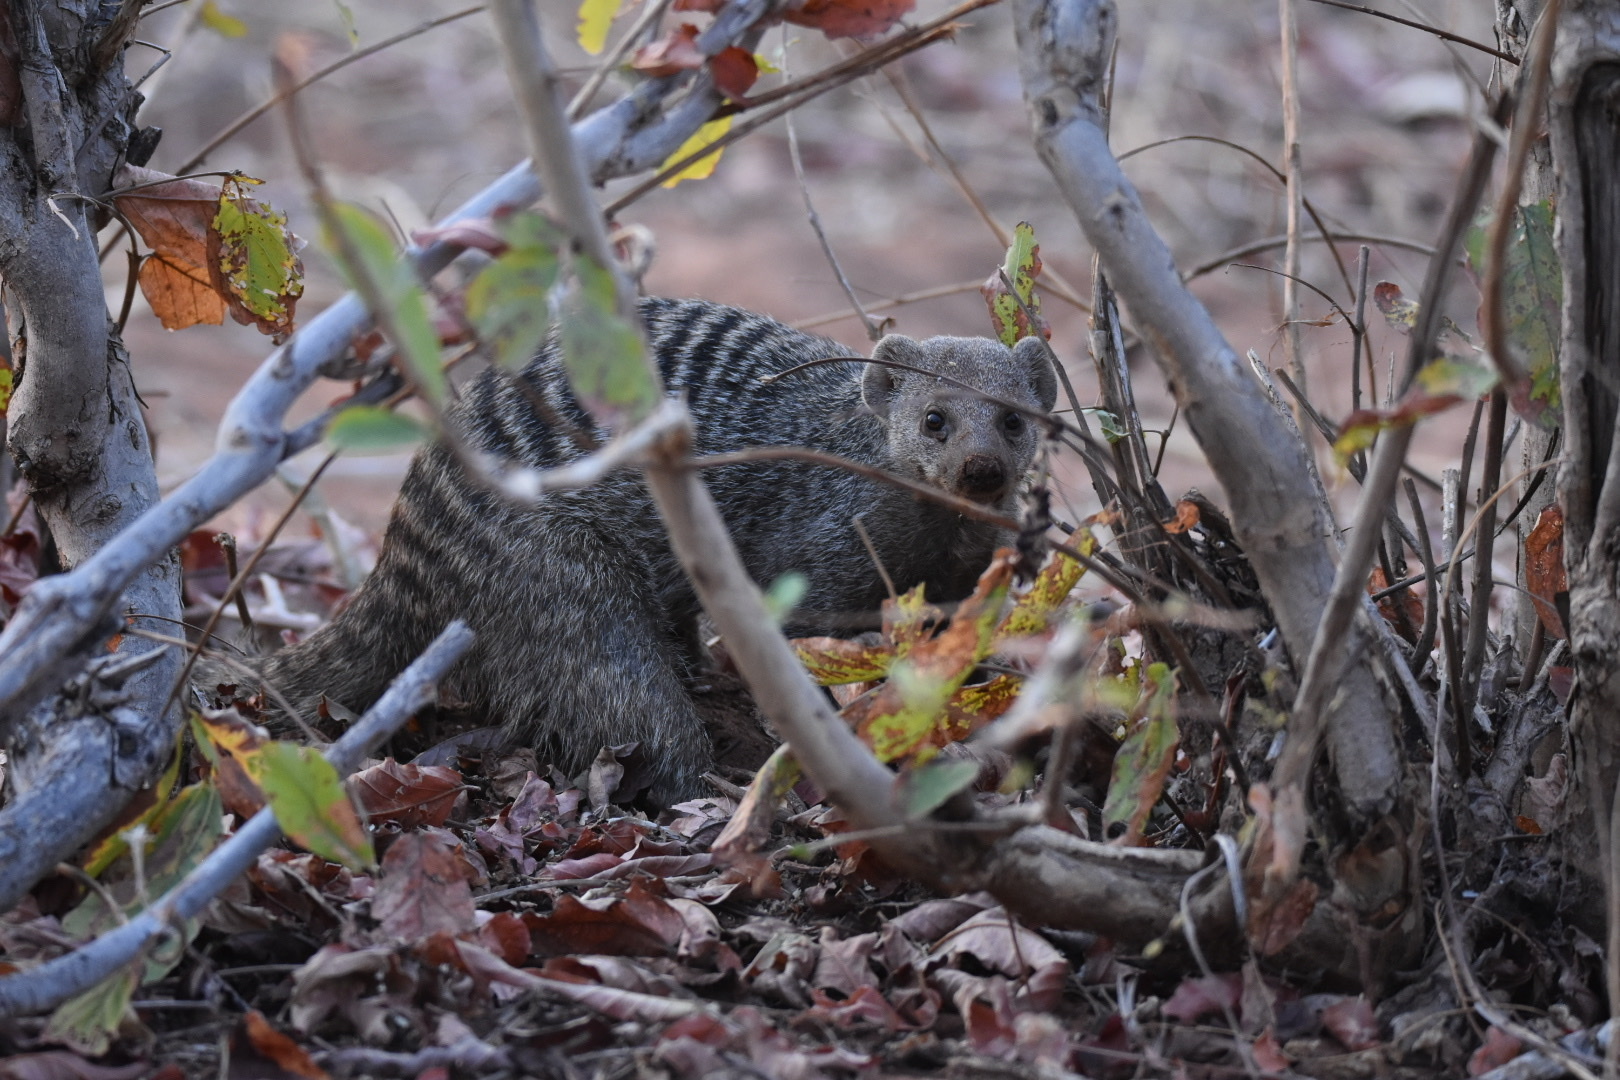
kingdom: Animalia
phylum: Chordata
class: Mammalia
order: Carnivora
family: Herpestidae
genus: Mungos
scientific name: Mungos mungo
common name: Banded mongoose
